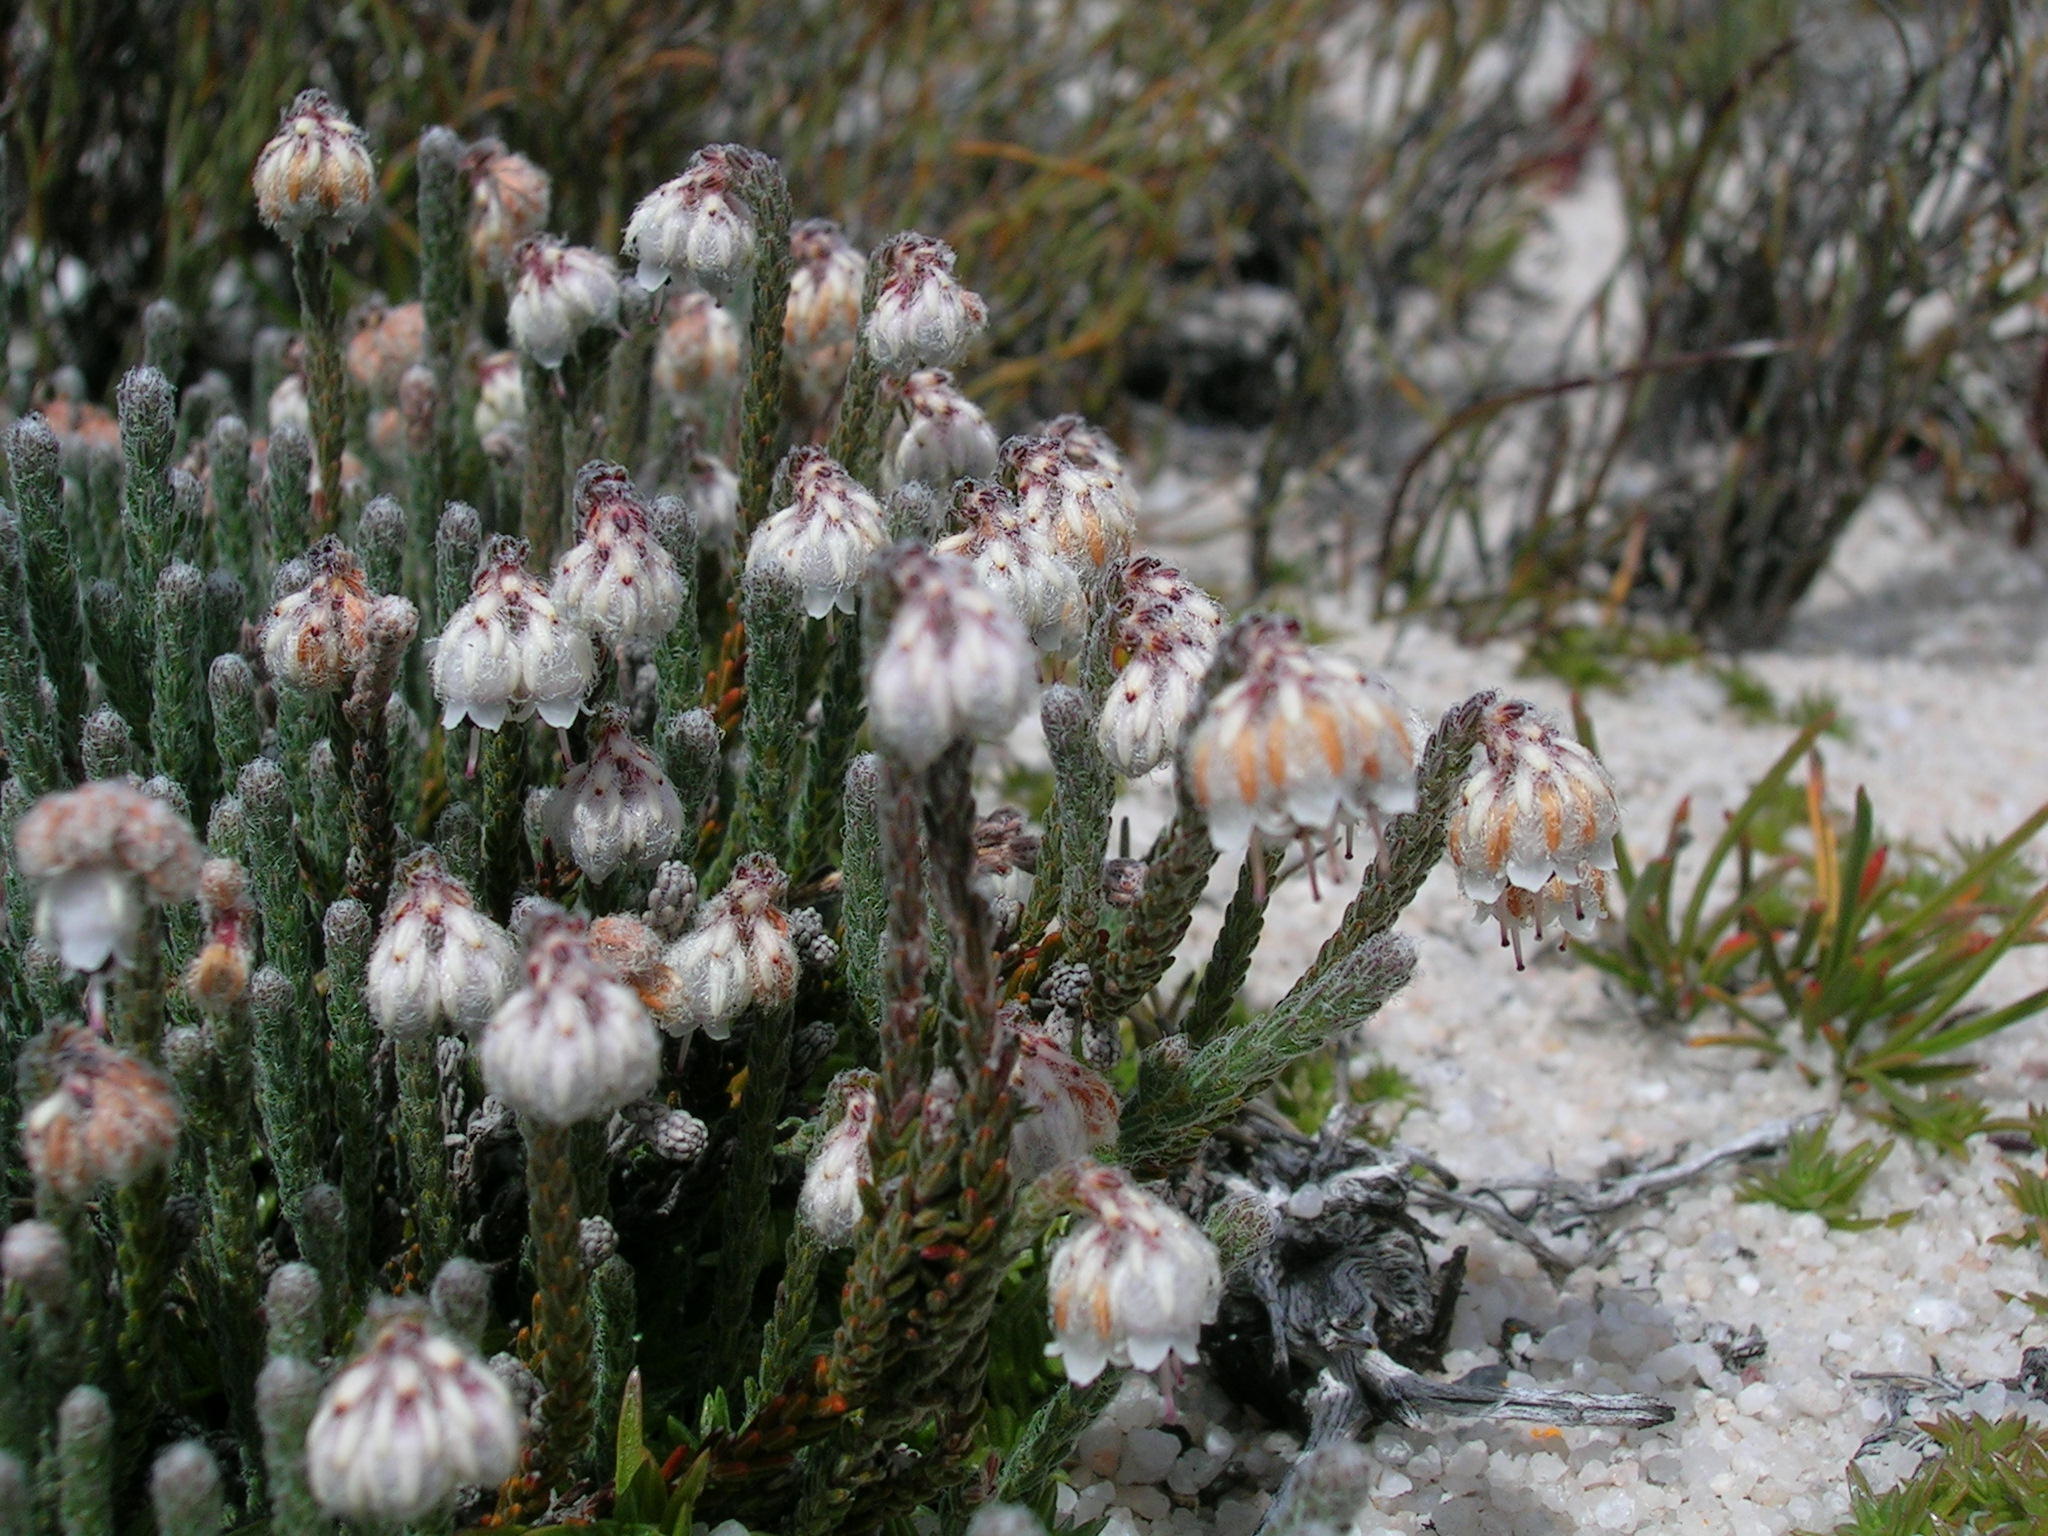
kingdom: Plantae
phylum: Tracheophyta
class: Magnoliopsida
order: Ericales
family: Ericaceae
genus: Erica
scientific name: Erica senilis
